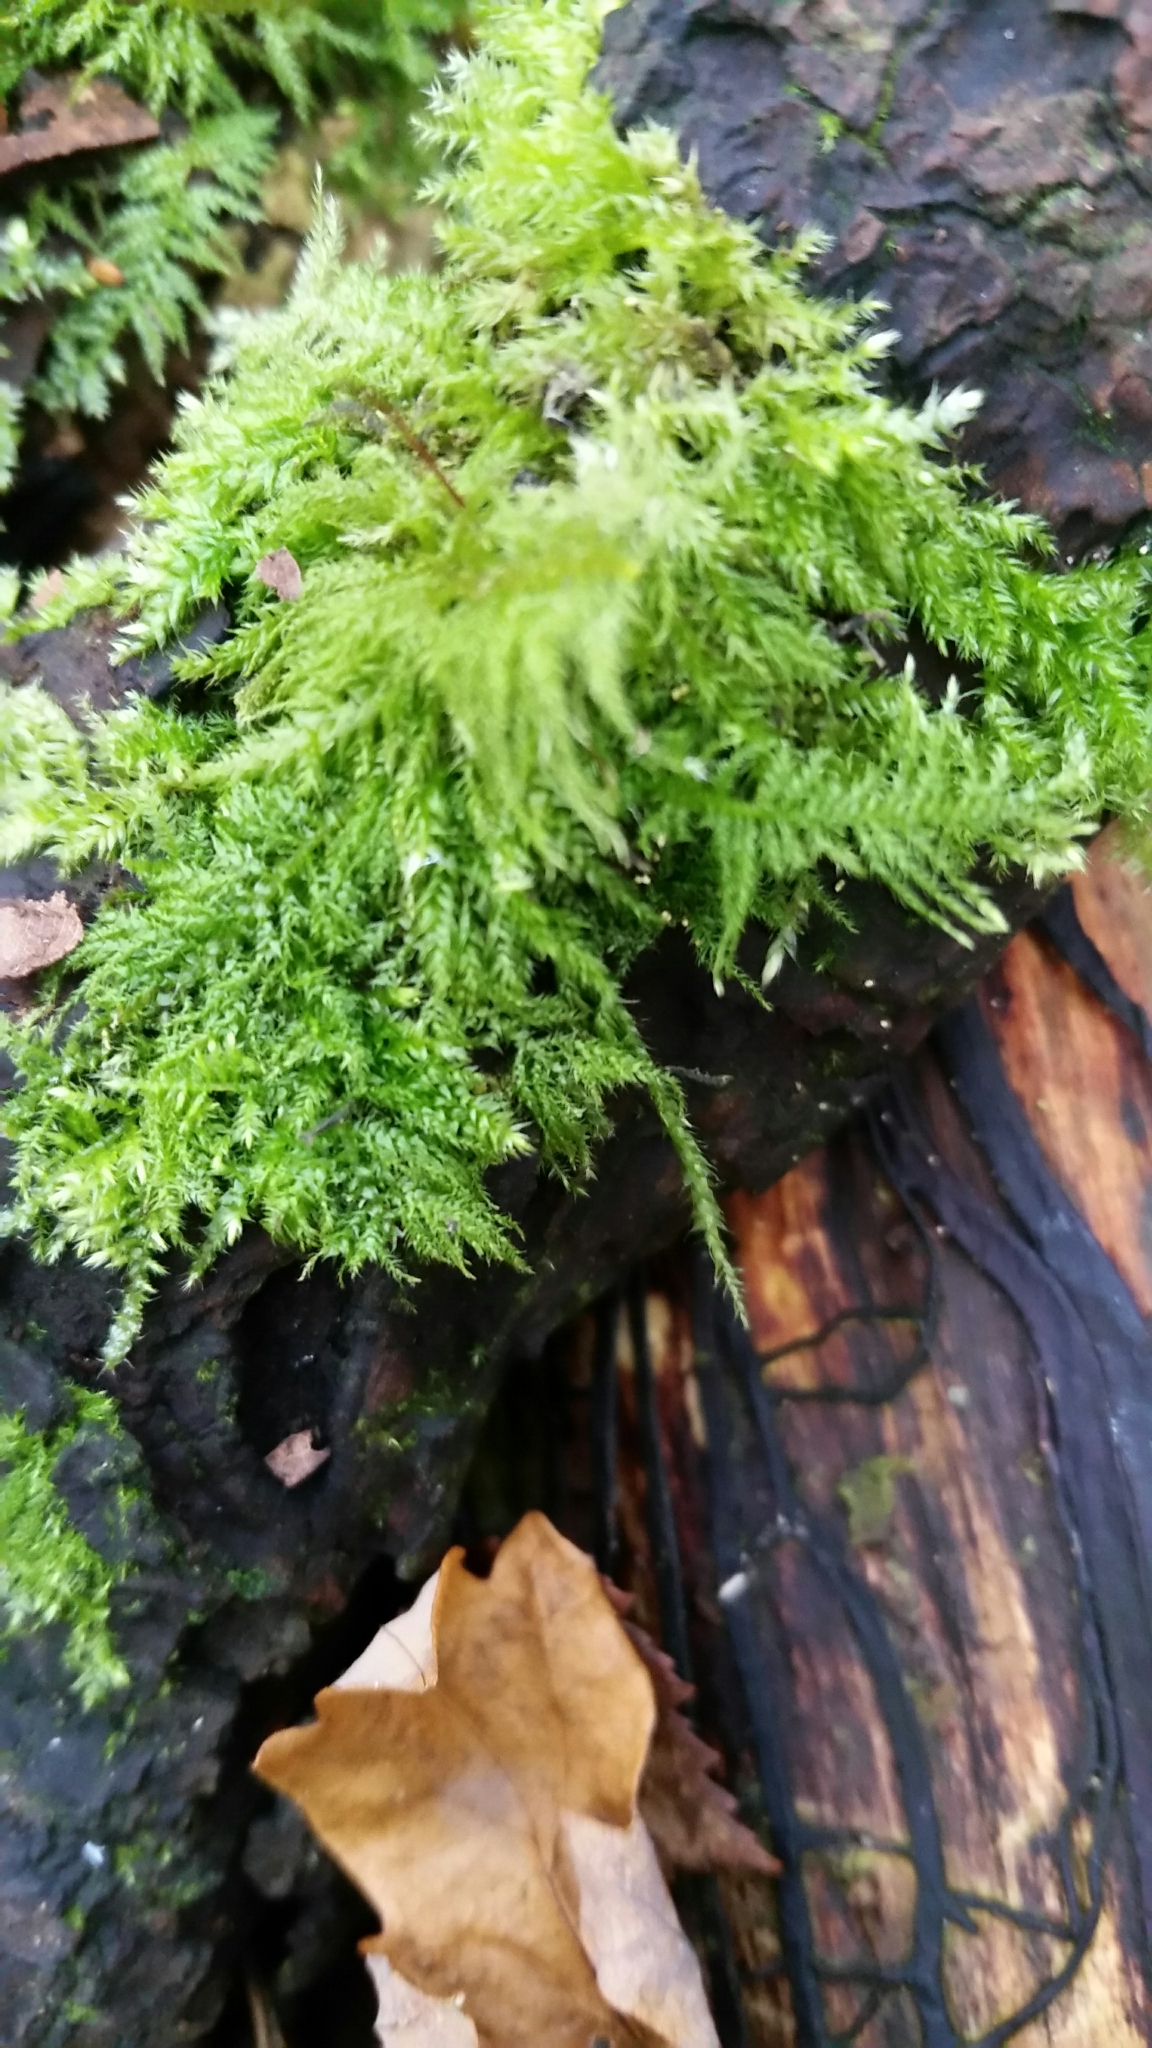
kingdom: Plantae
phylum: Bryophyta
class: Bryopsida
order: Hypnales
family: Brachytheciaceae
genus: Kindbergia
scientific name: Kindbergia praelonga
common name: Slender beaked moss
